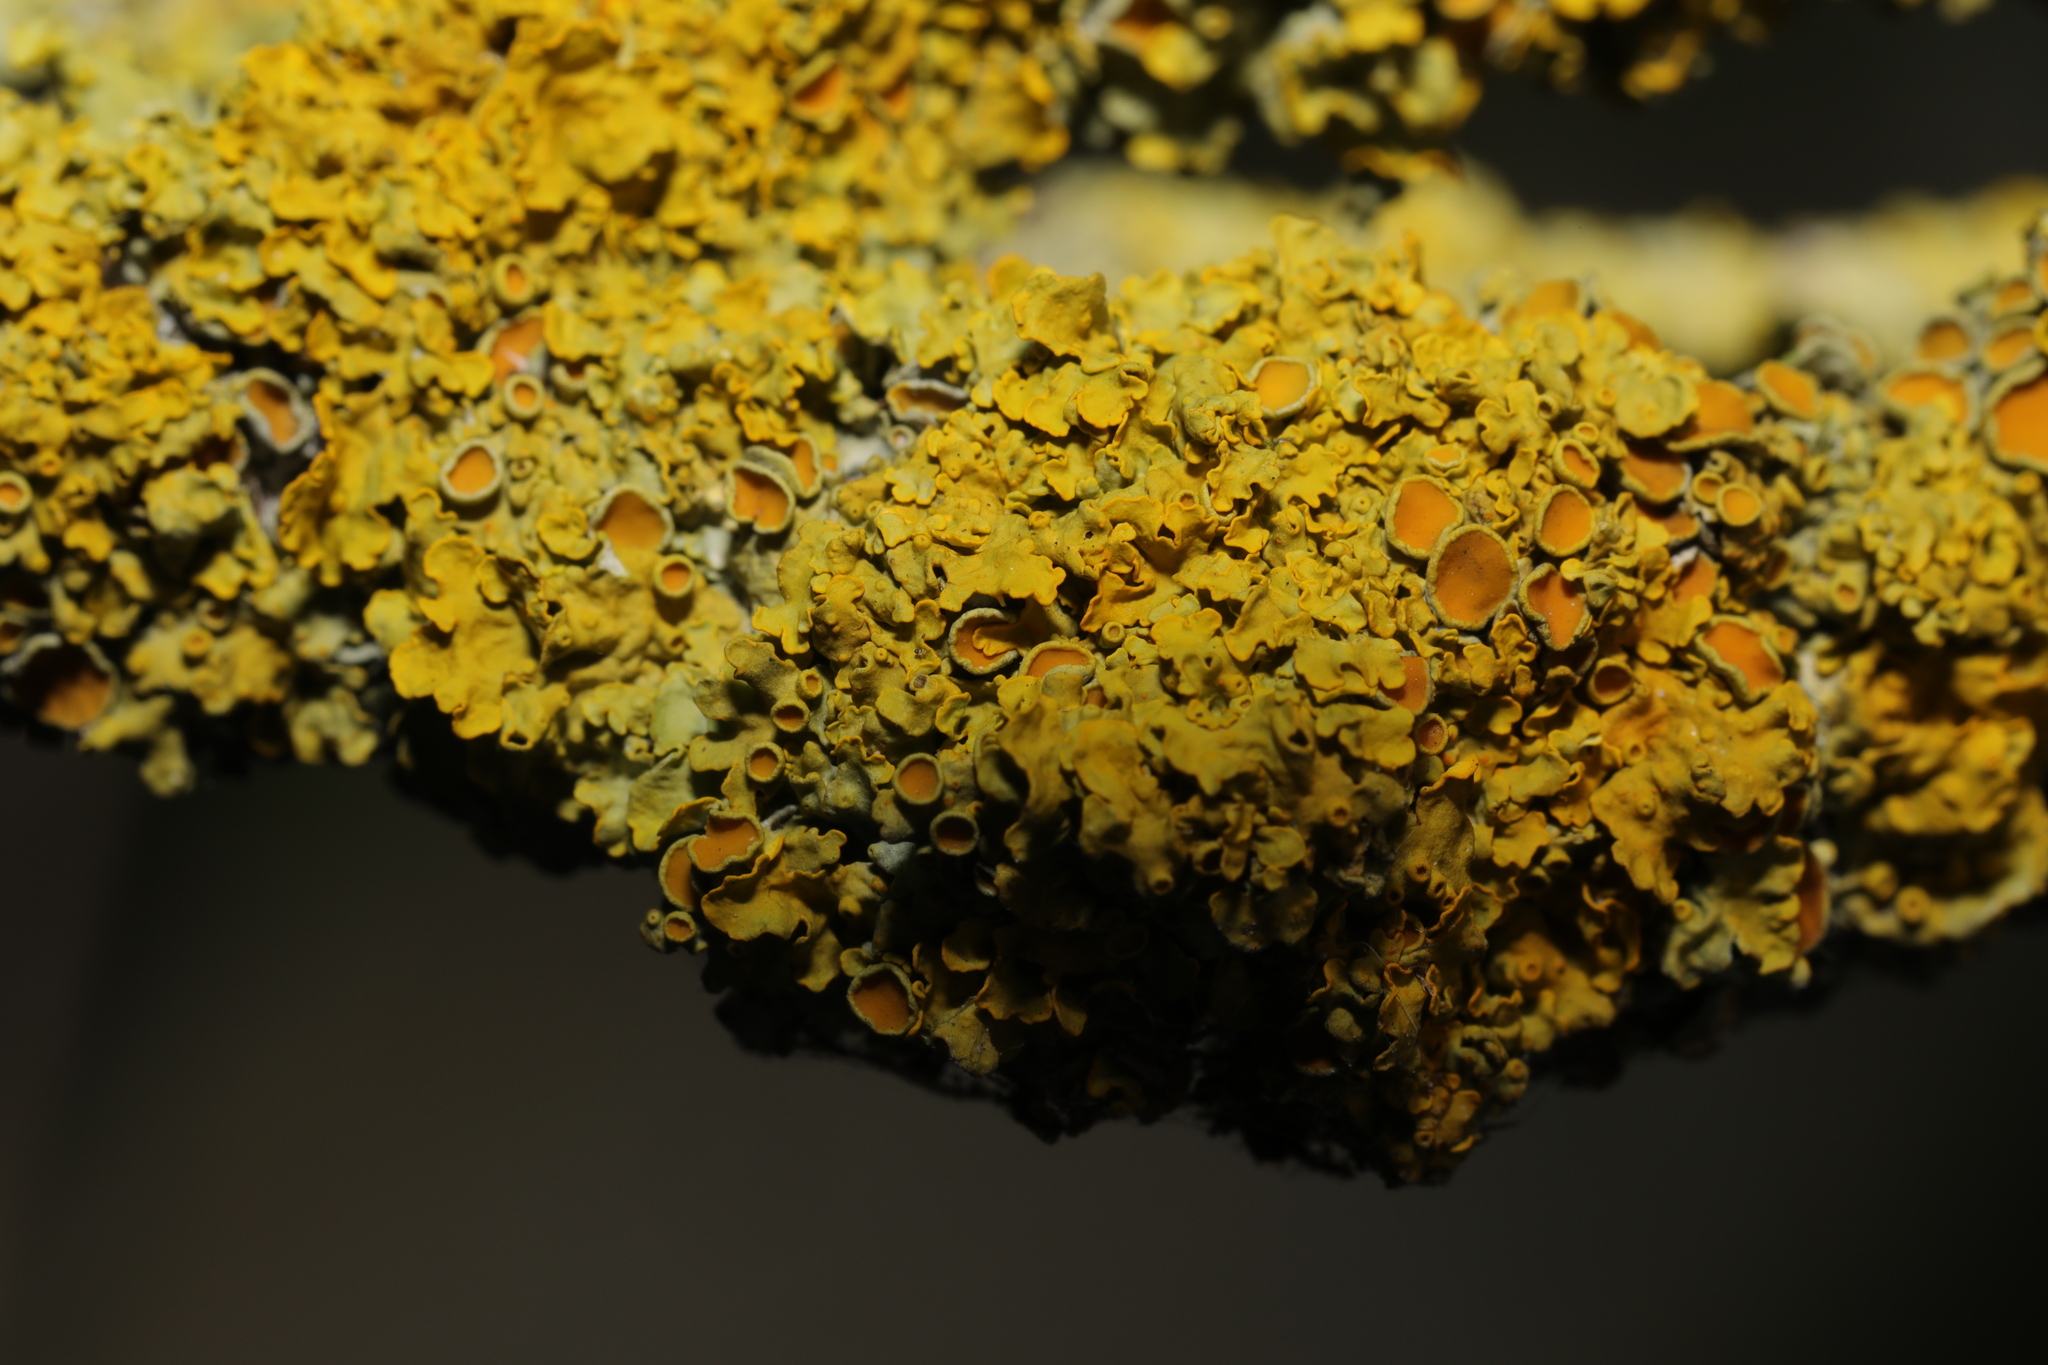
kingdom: Fungi
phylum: Ascomycota
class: Lecanoromycetes
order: Teloschistales
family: Teloschistaceae
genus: Xanthoria
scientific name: Xanthoria parietina
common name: Common orange lichen
